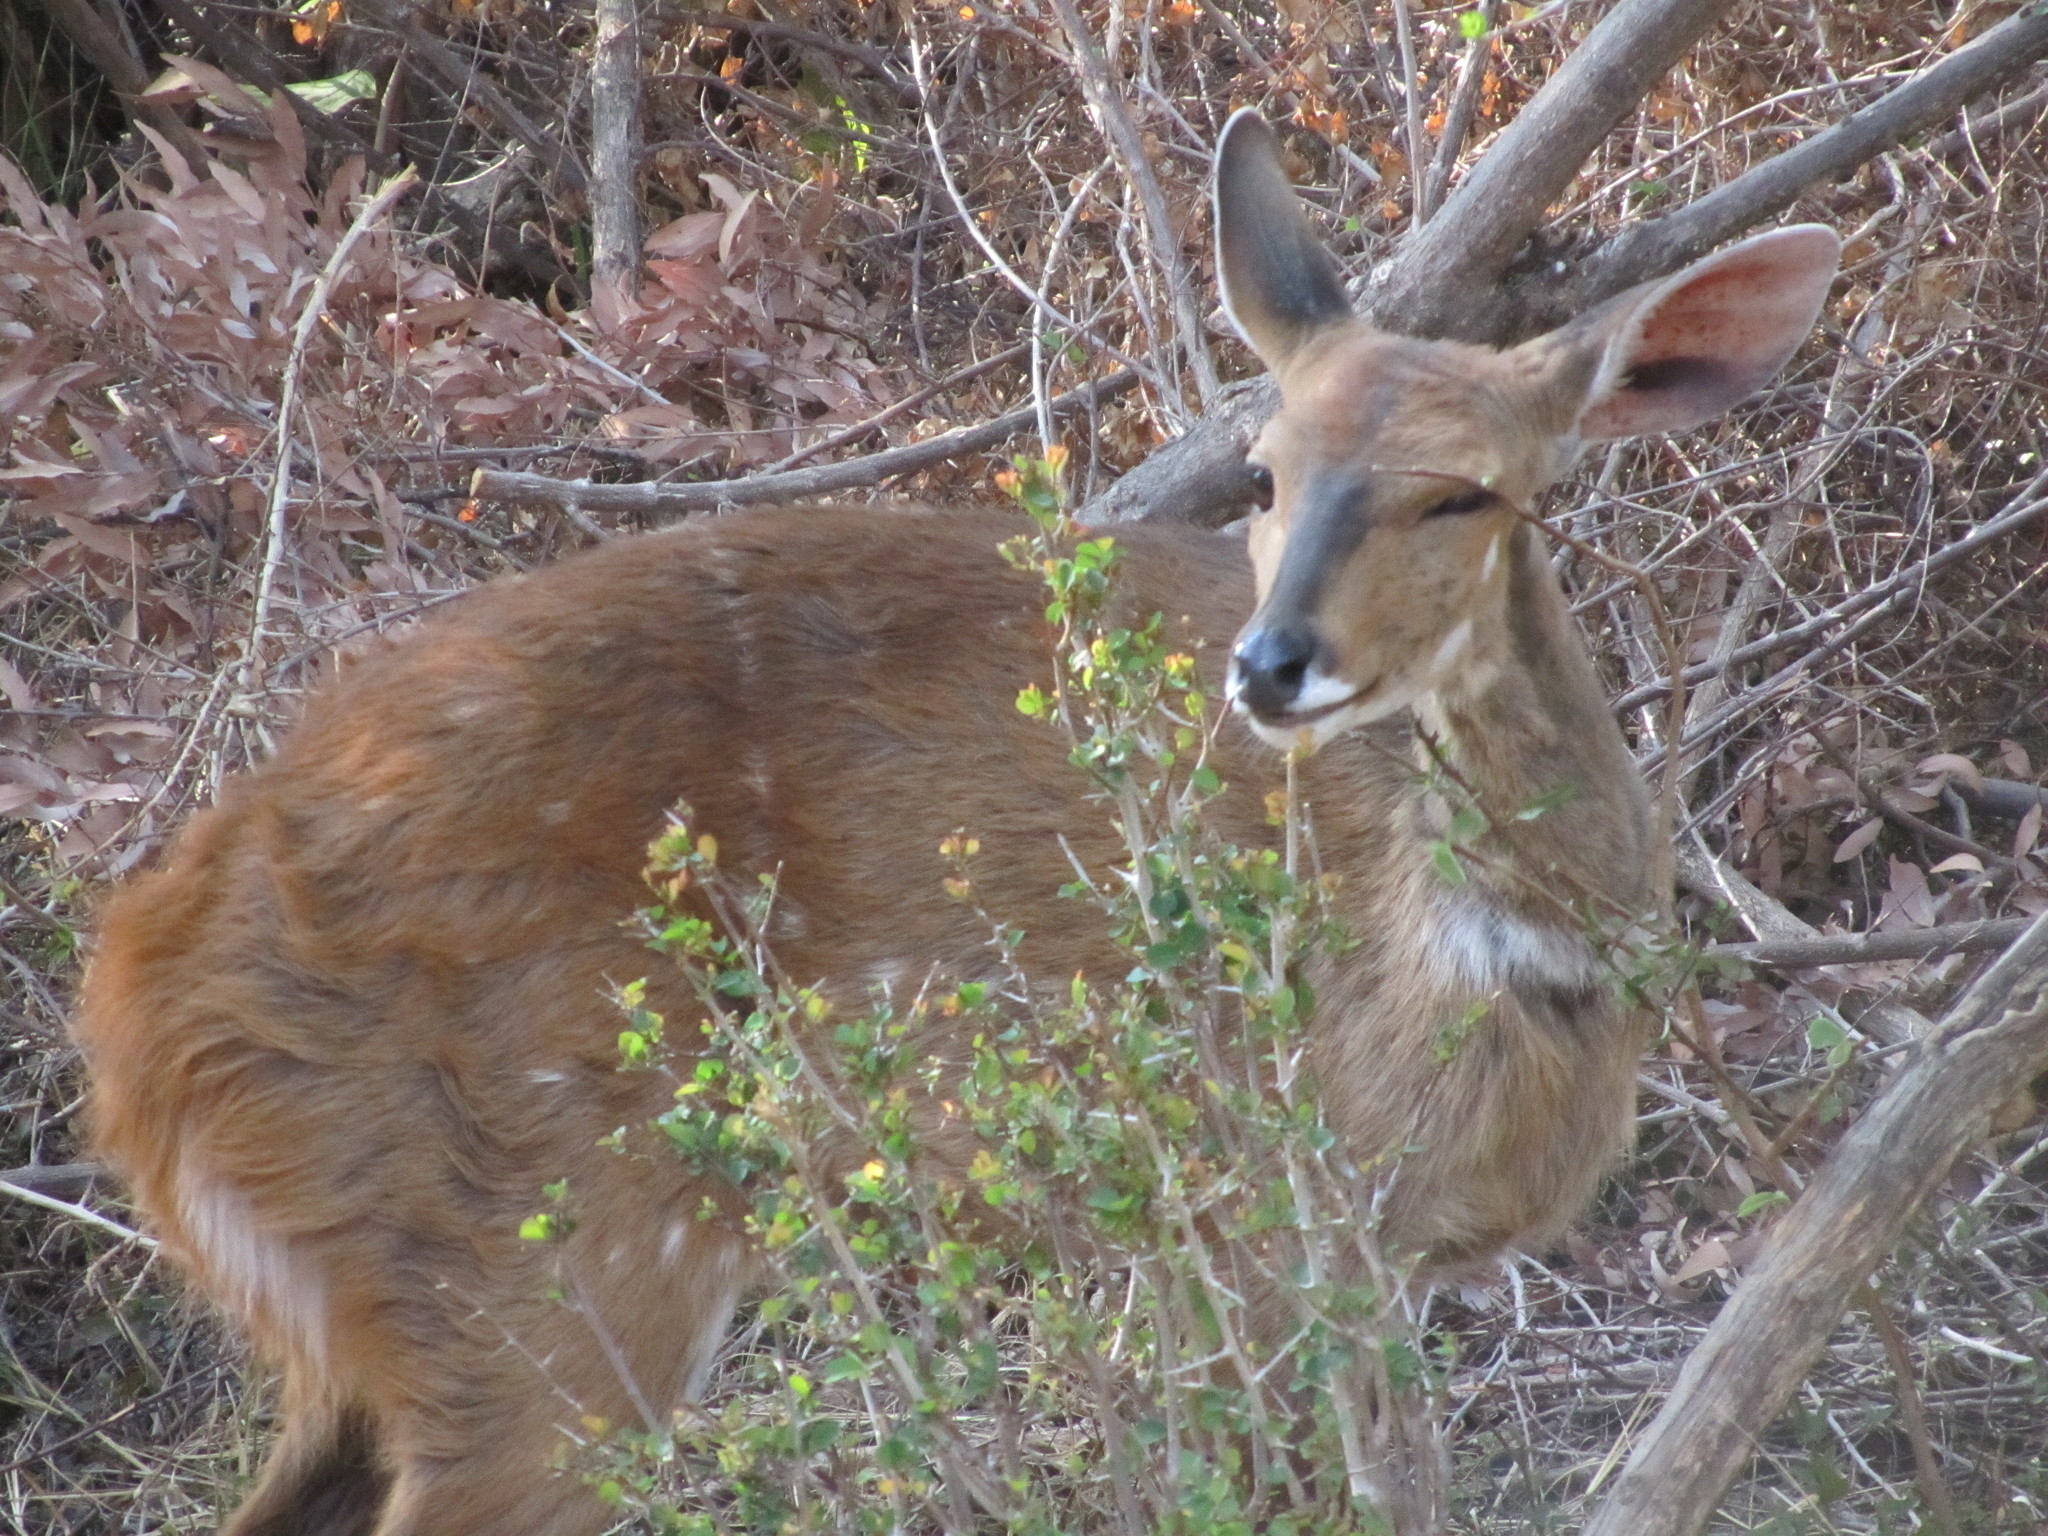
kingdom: Animalia
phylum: Chordata
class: Mammalia
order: Artiodactyla
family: Bovidae
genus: Tragelaphus
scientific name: Tragelaphus scriptus
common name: Bushbuck
